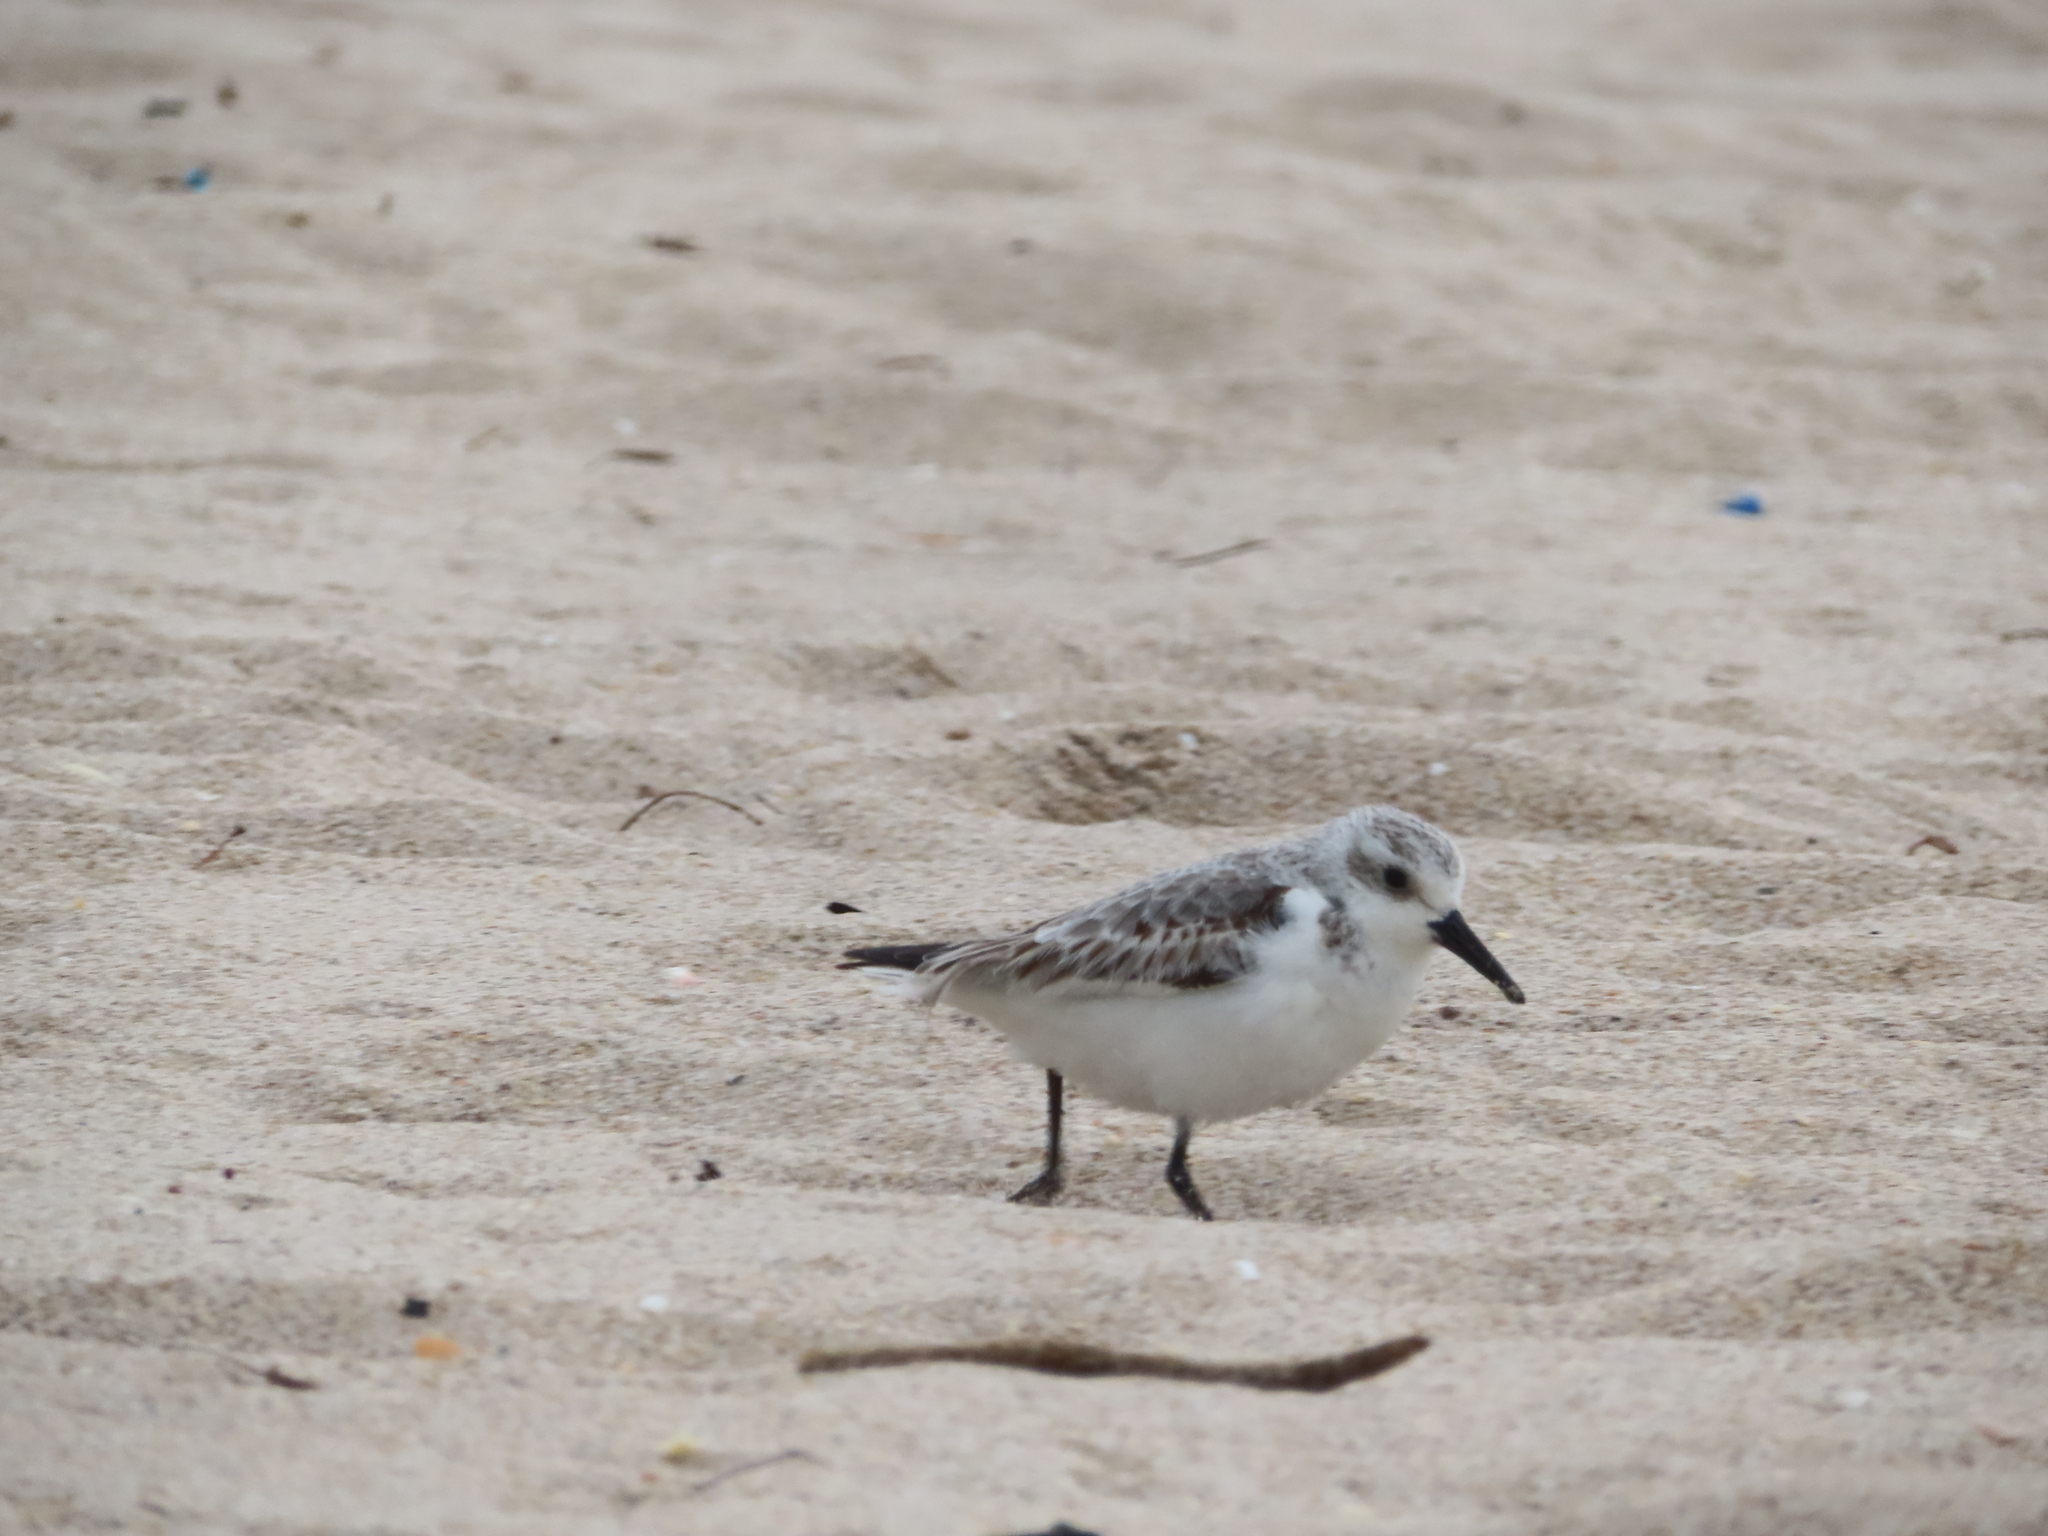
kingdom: Animalia
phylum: Chordata
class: Aves
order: Charadriiformes
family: Scolopacidae
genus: Calidris
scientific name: Calidris alba
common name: Sanderling
